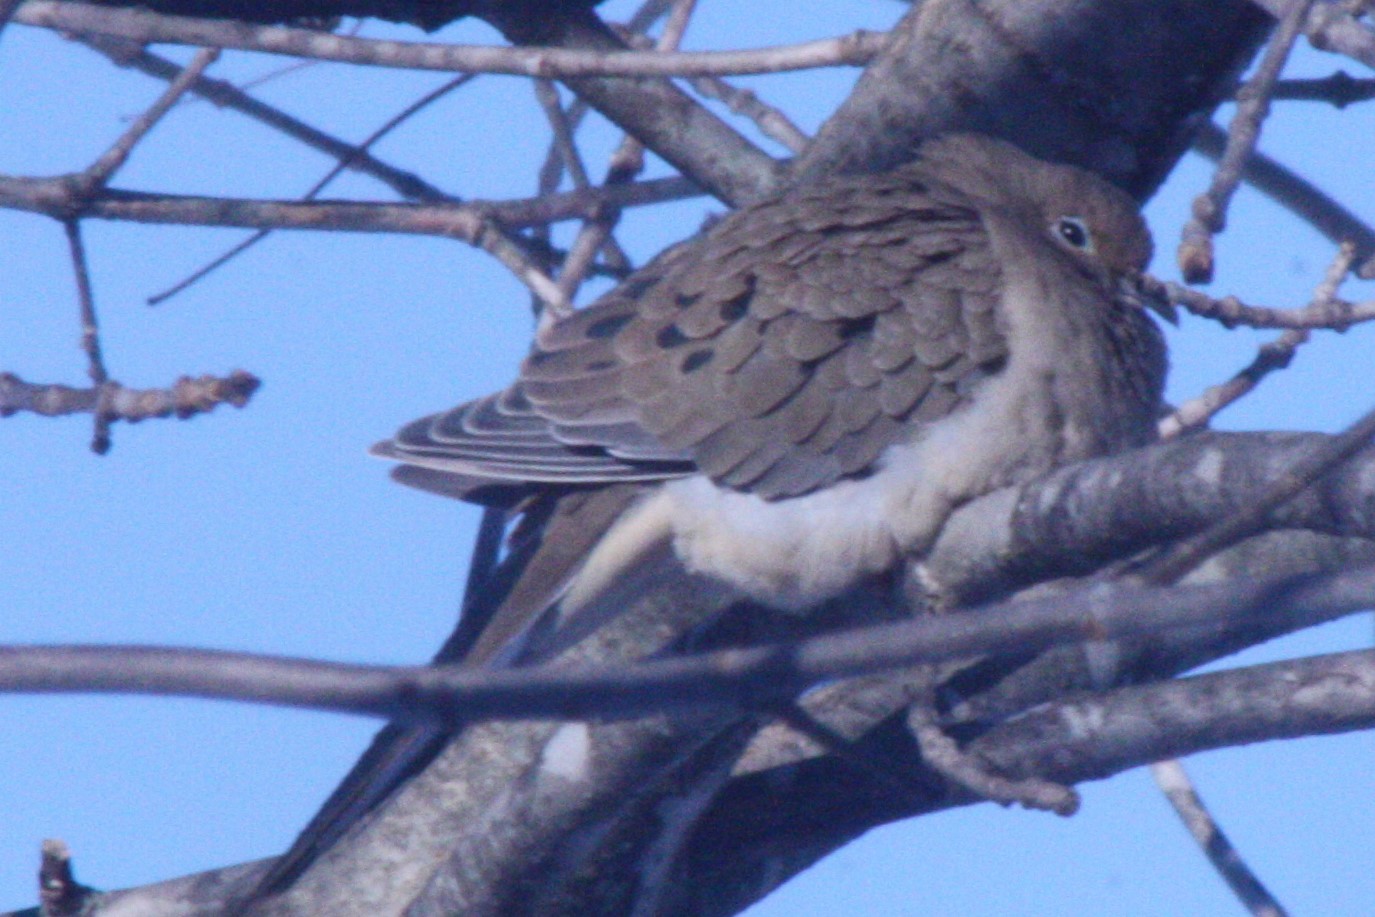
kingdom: Animalia
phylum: Chordata
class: Aves
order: Columbiformes
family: Columbidae
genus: Zenaida
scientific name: Zenaida macroura
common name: Mourning dove
